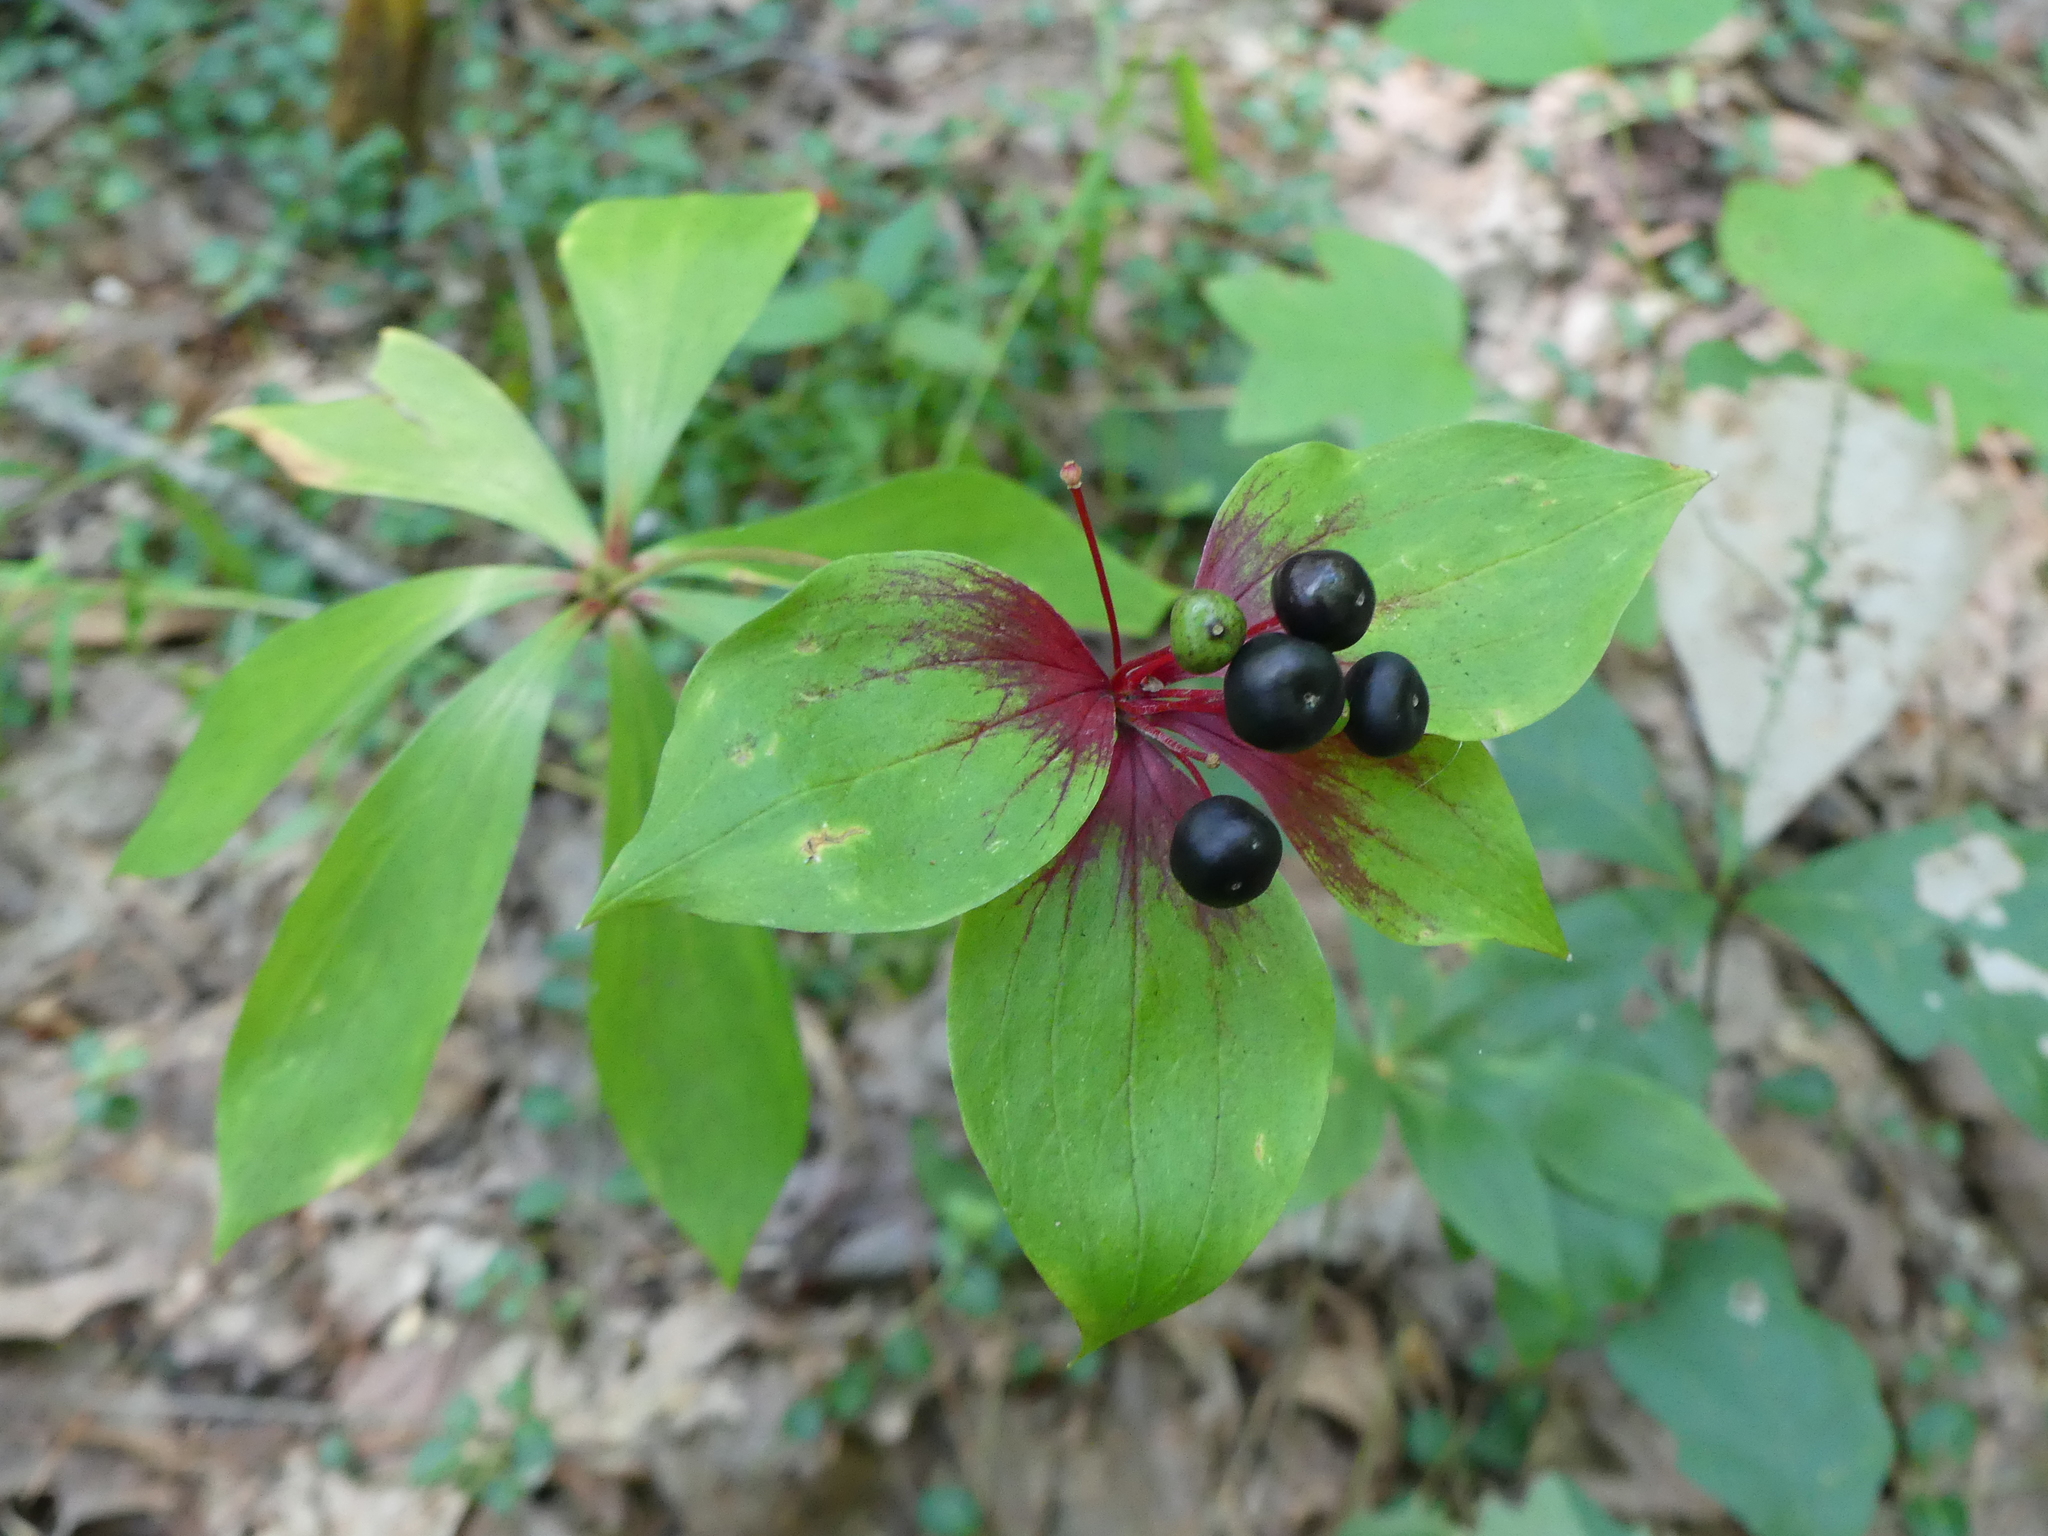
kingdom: Plantae
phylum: Tracheophyta
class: Liliopsida
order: Liliales
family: Liliaceae
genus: Medeola
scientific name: Medeola virginiana
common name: Indian cucumber-root
